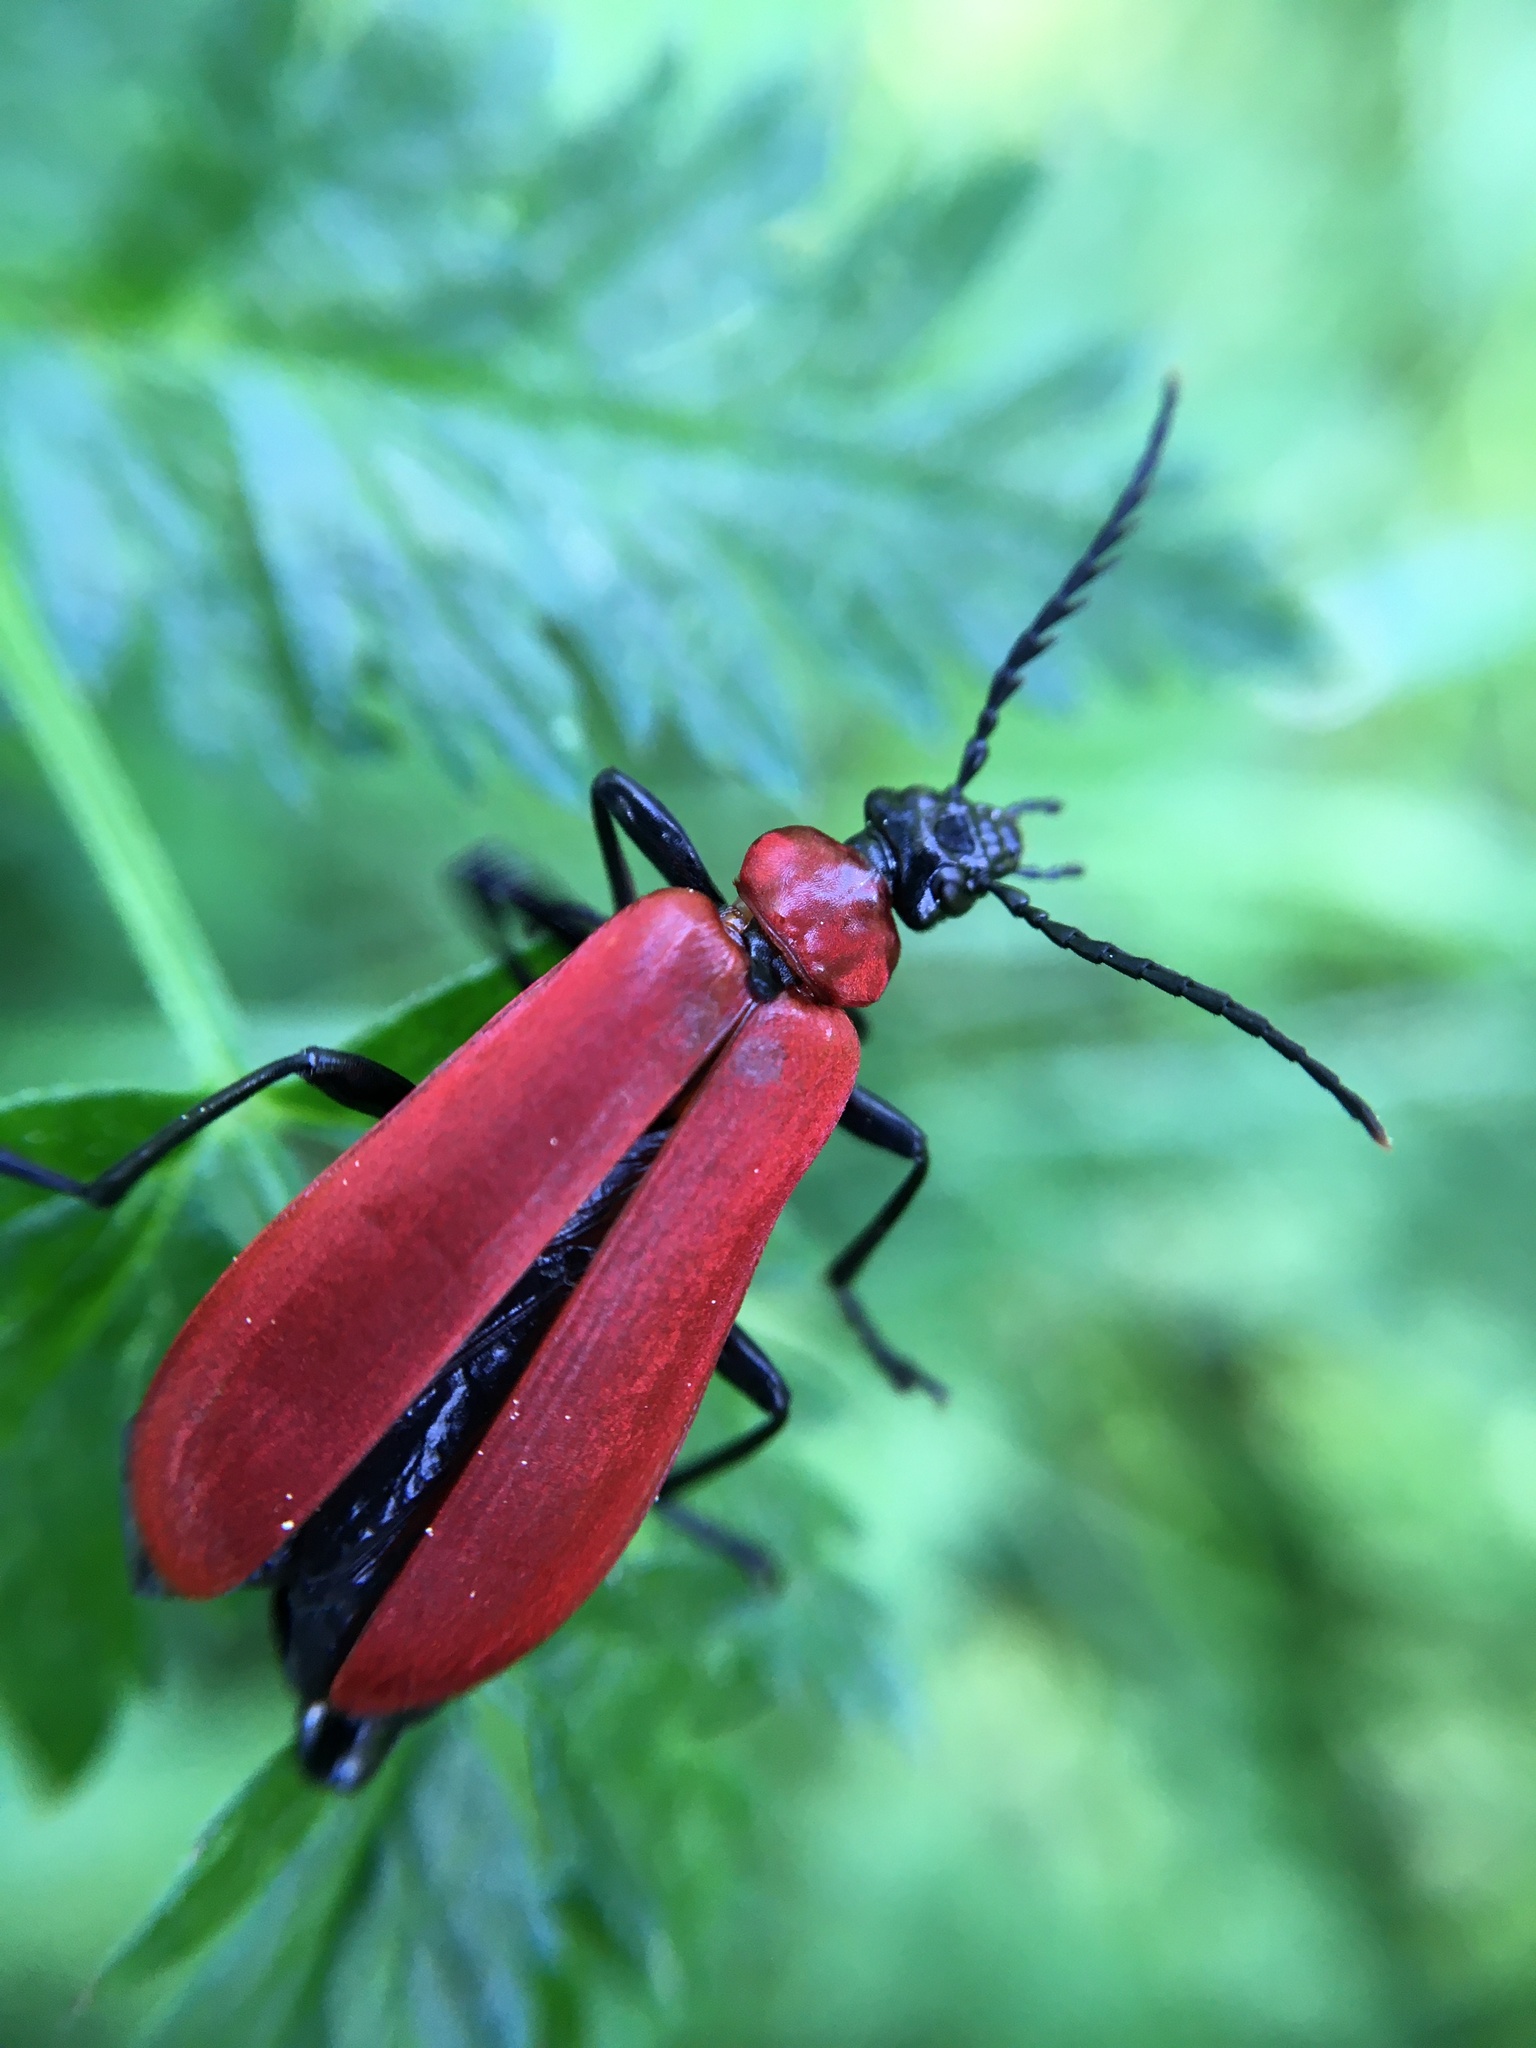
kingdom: Animalia
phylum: Arthropoda
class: Insecta
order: Coleoptera
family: Pyrochroidae
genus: Pyrochroa
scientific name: Pyrochroa coccinea
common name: Black-headed cardinal beetle
